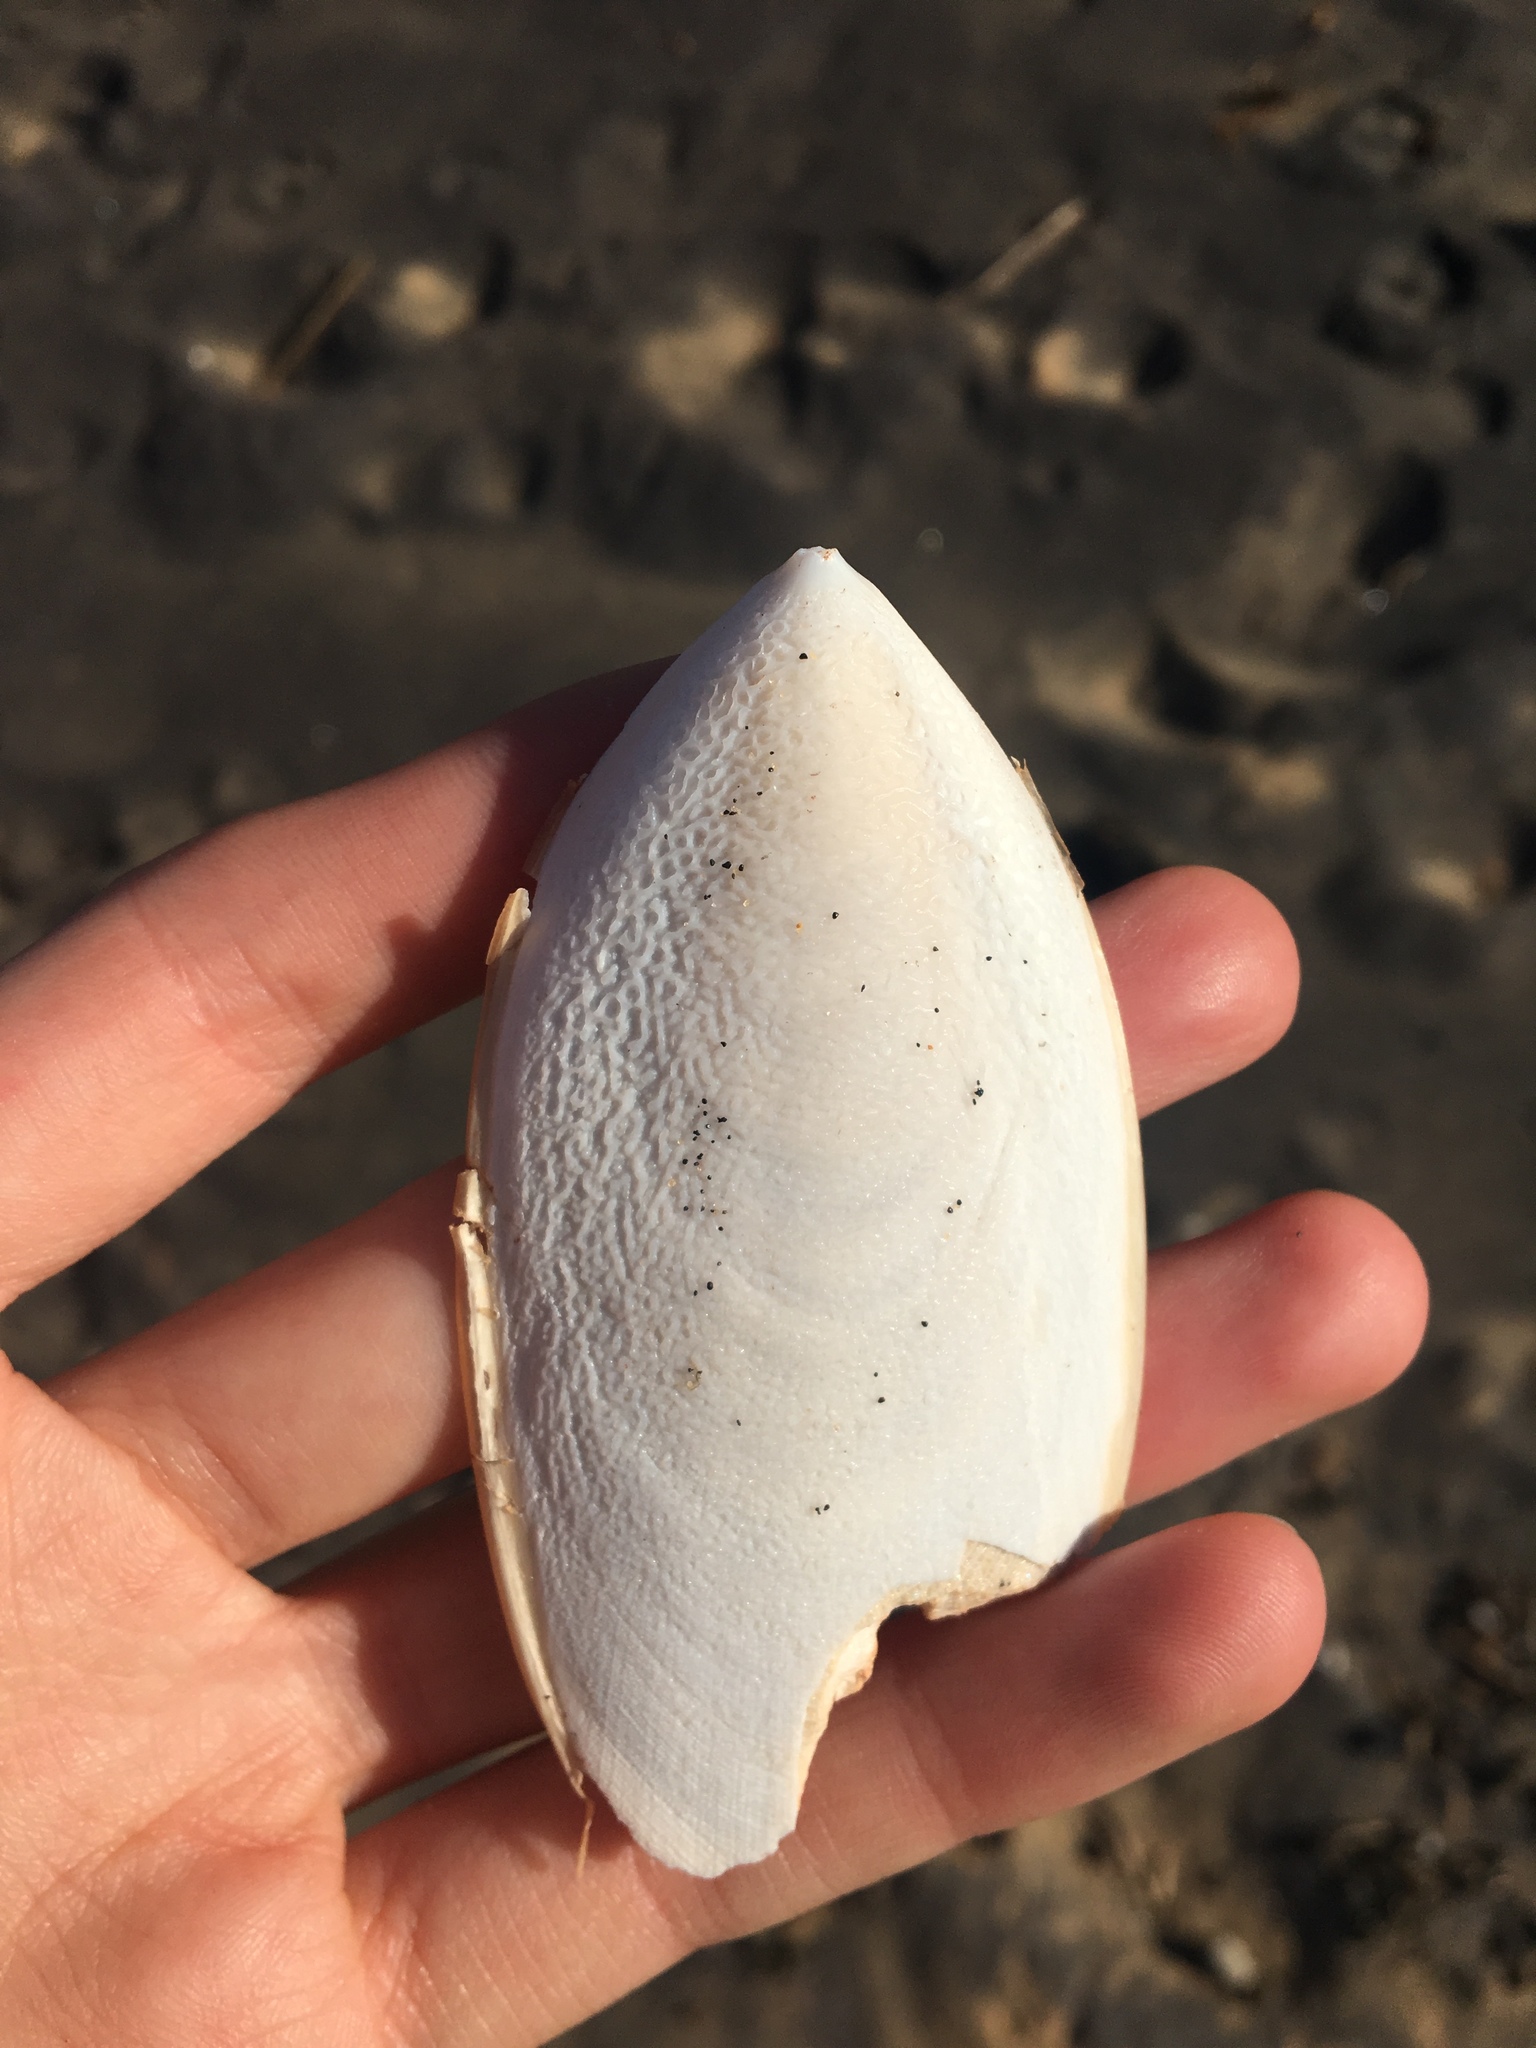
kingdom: Animalia
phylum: Mollusca
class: Cephalopoda
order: Sepiida
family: Sepiidae
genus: Ascarosepion
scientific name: Ascarosepion mestus
